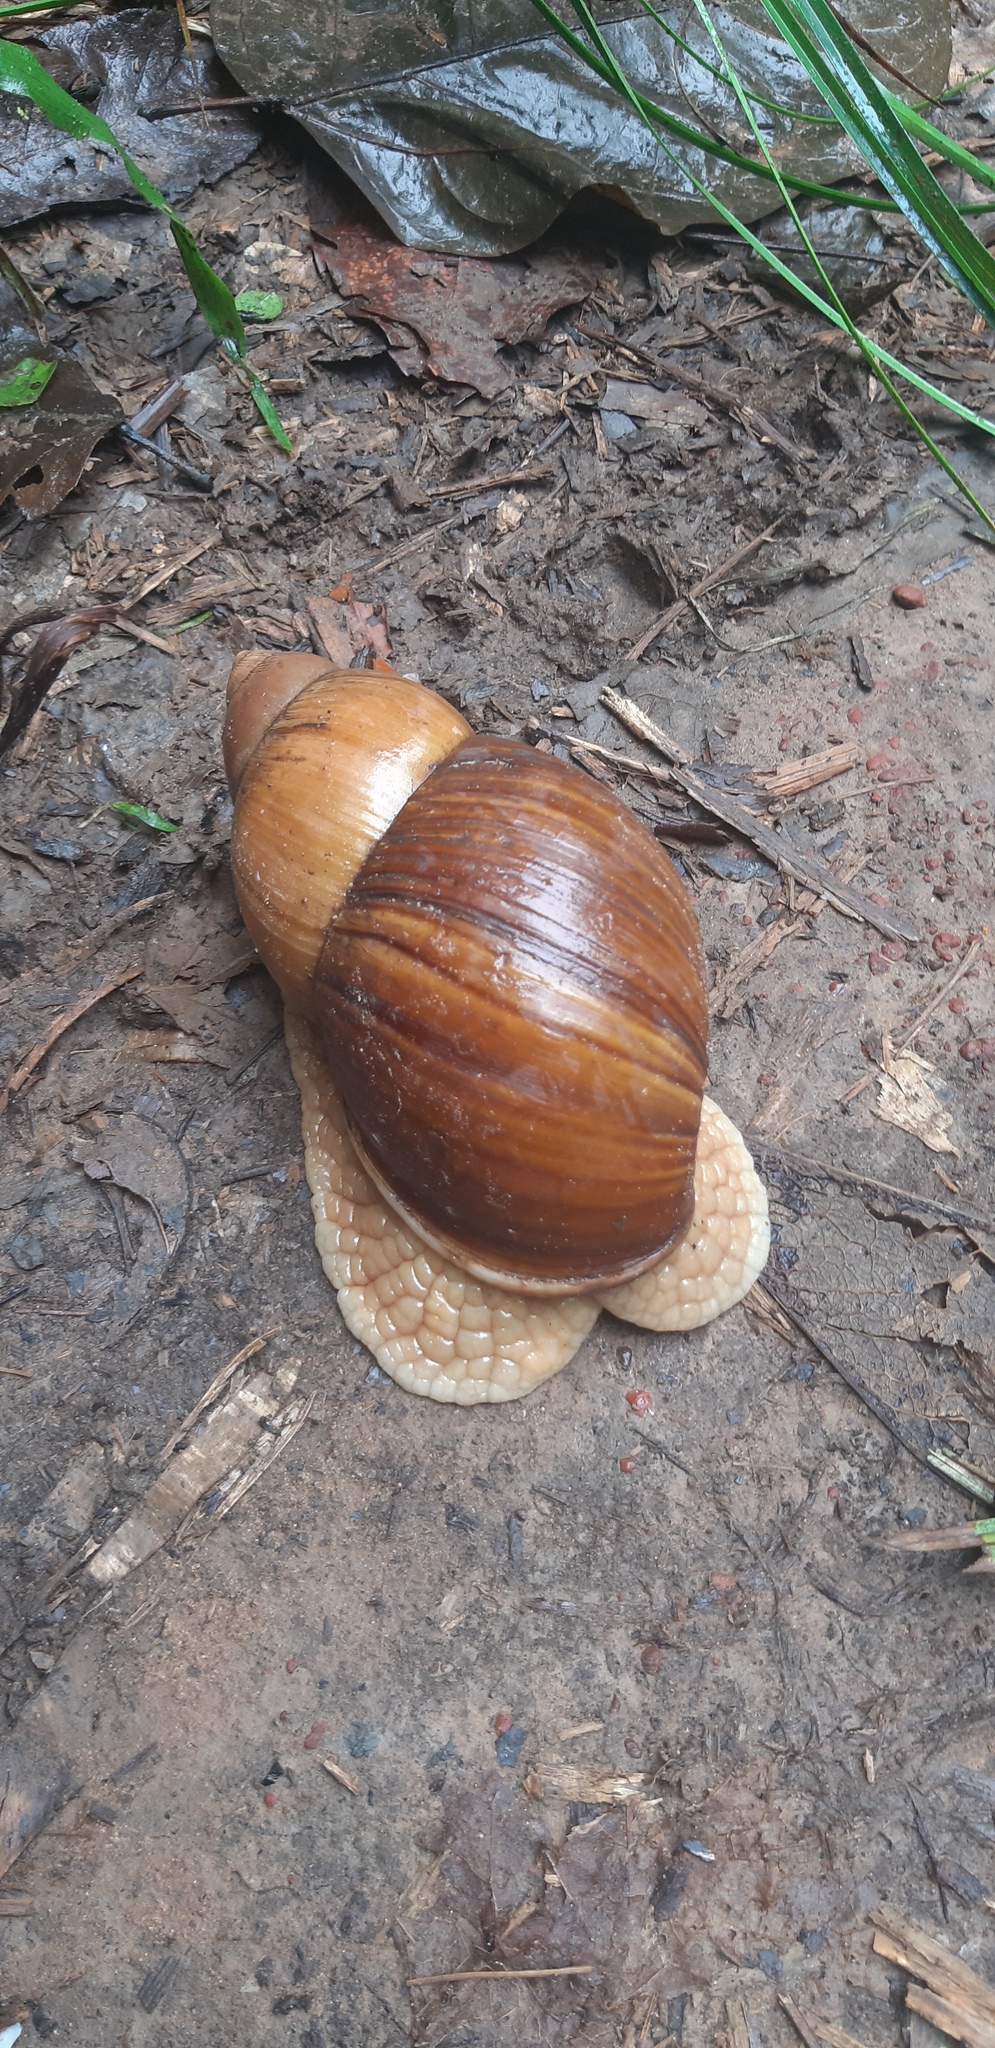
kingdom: Animalia
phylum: Mollusca
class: Gastropoda
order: Stylommatophora
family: Strophocheilidae
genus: Megalobulimus
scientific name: Megalobulimus maximus
